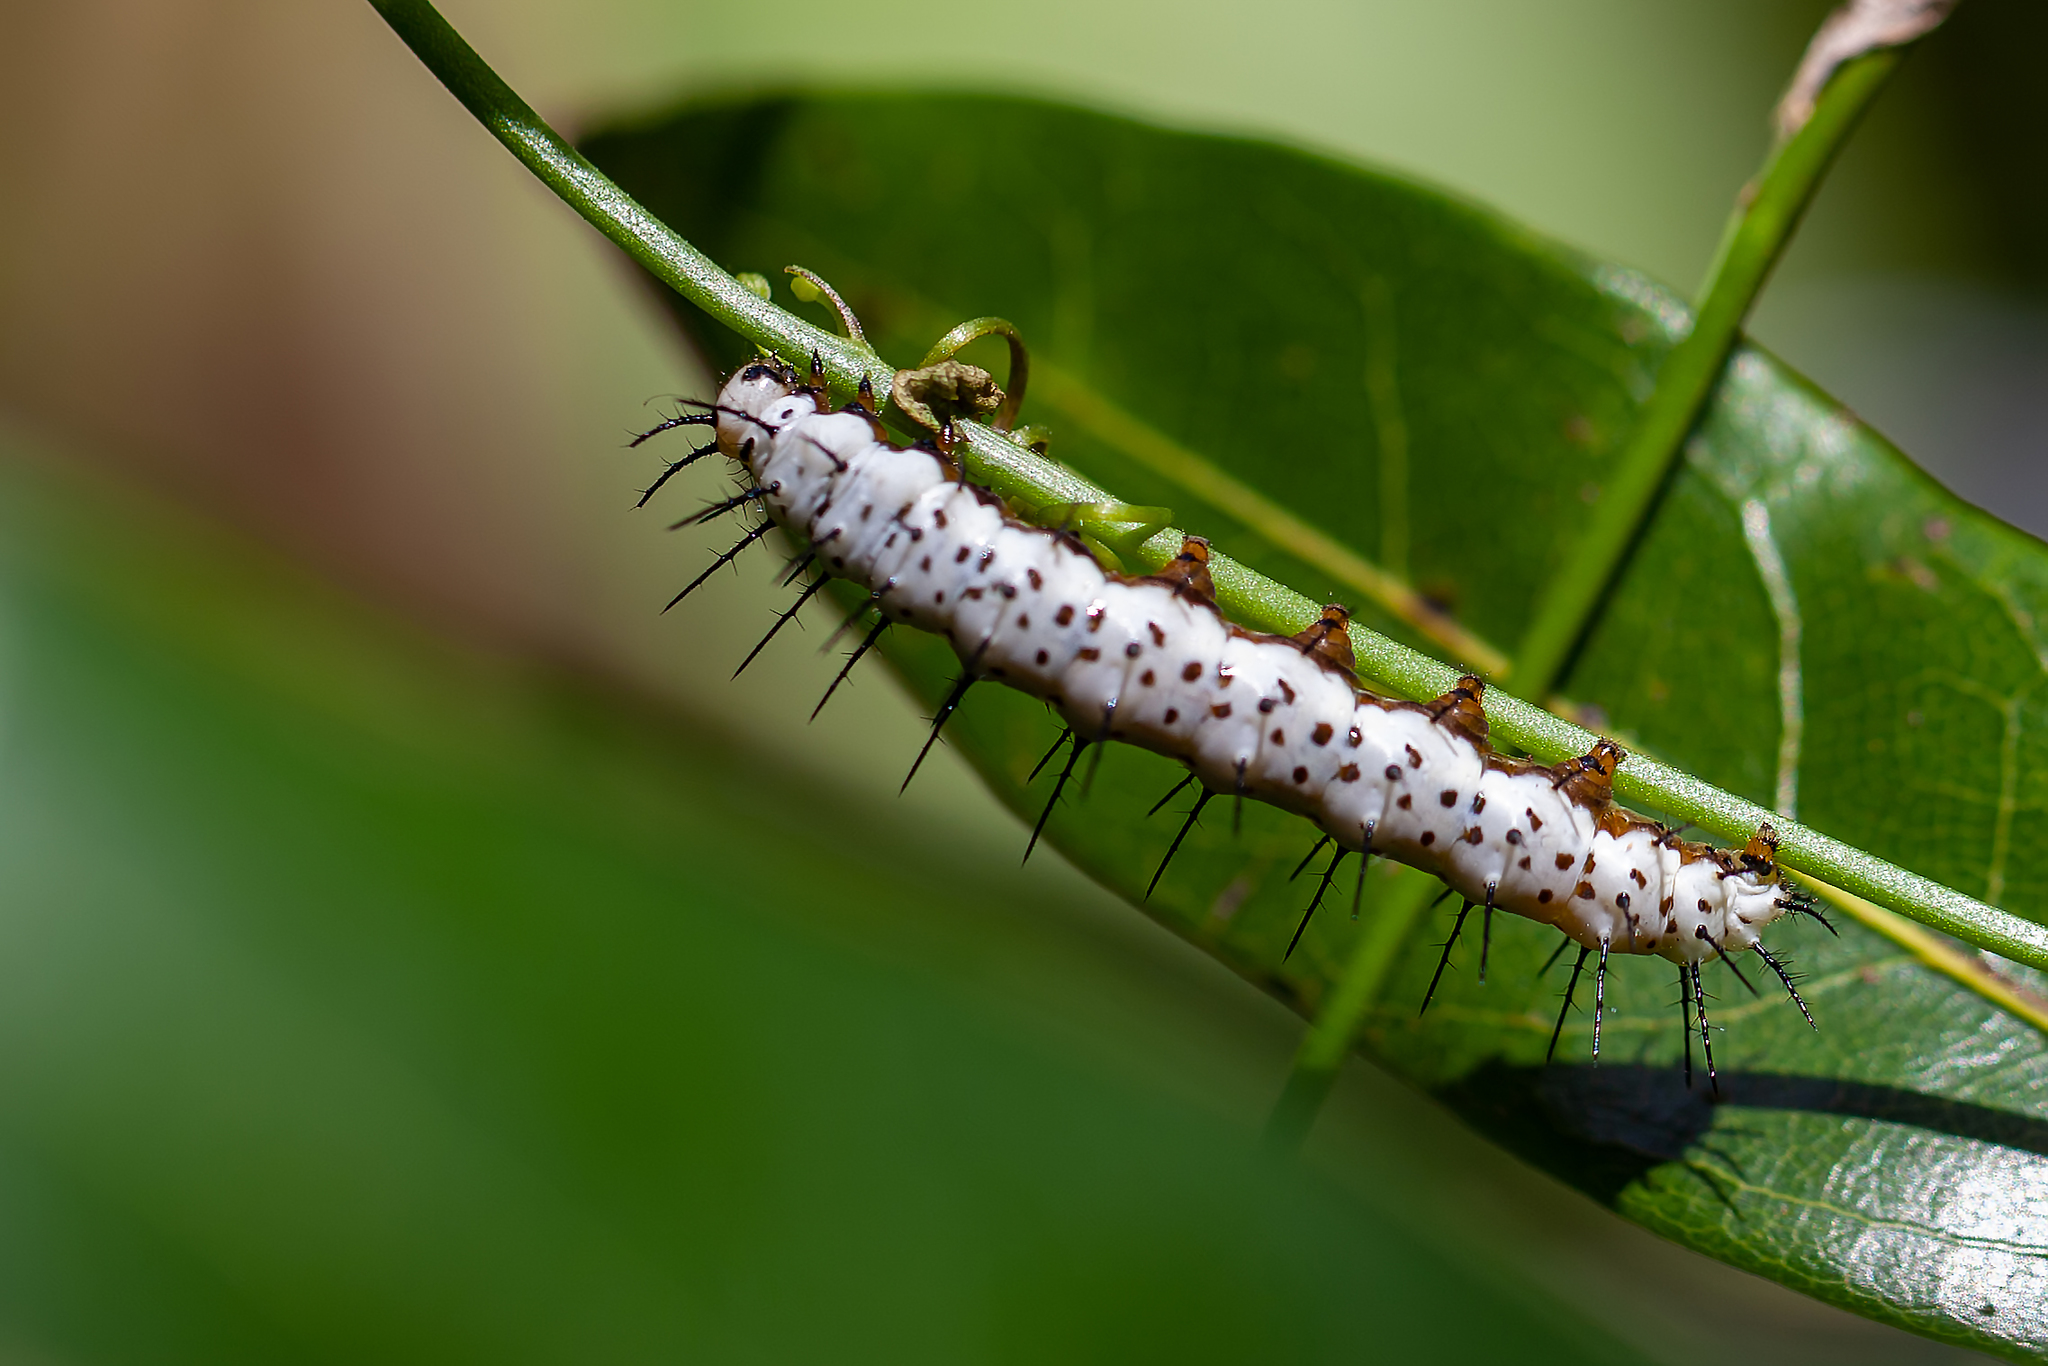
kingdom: Animalia
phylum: Arthropoda
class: Insecta
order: Lepidoptera
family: Nymphalidae
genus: Heliconius
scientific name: Heliconius charithonia
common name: Zebra long wing
